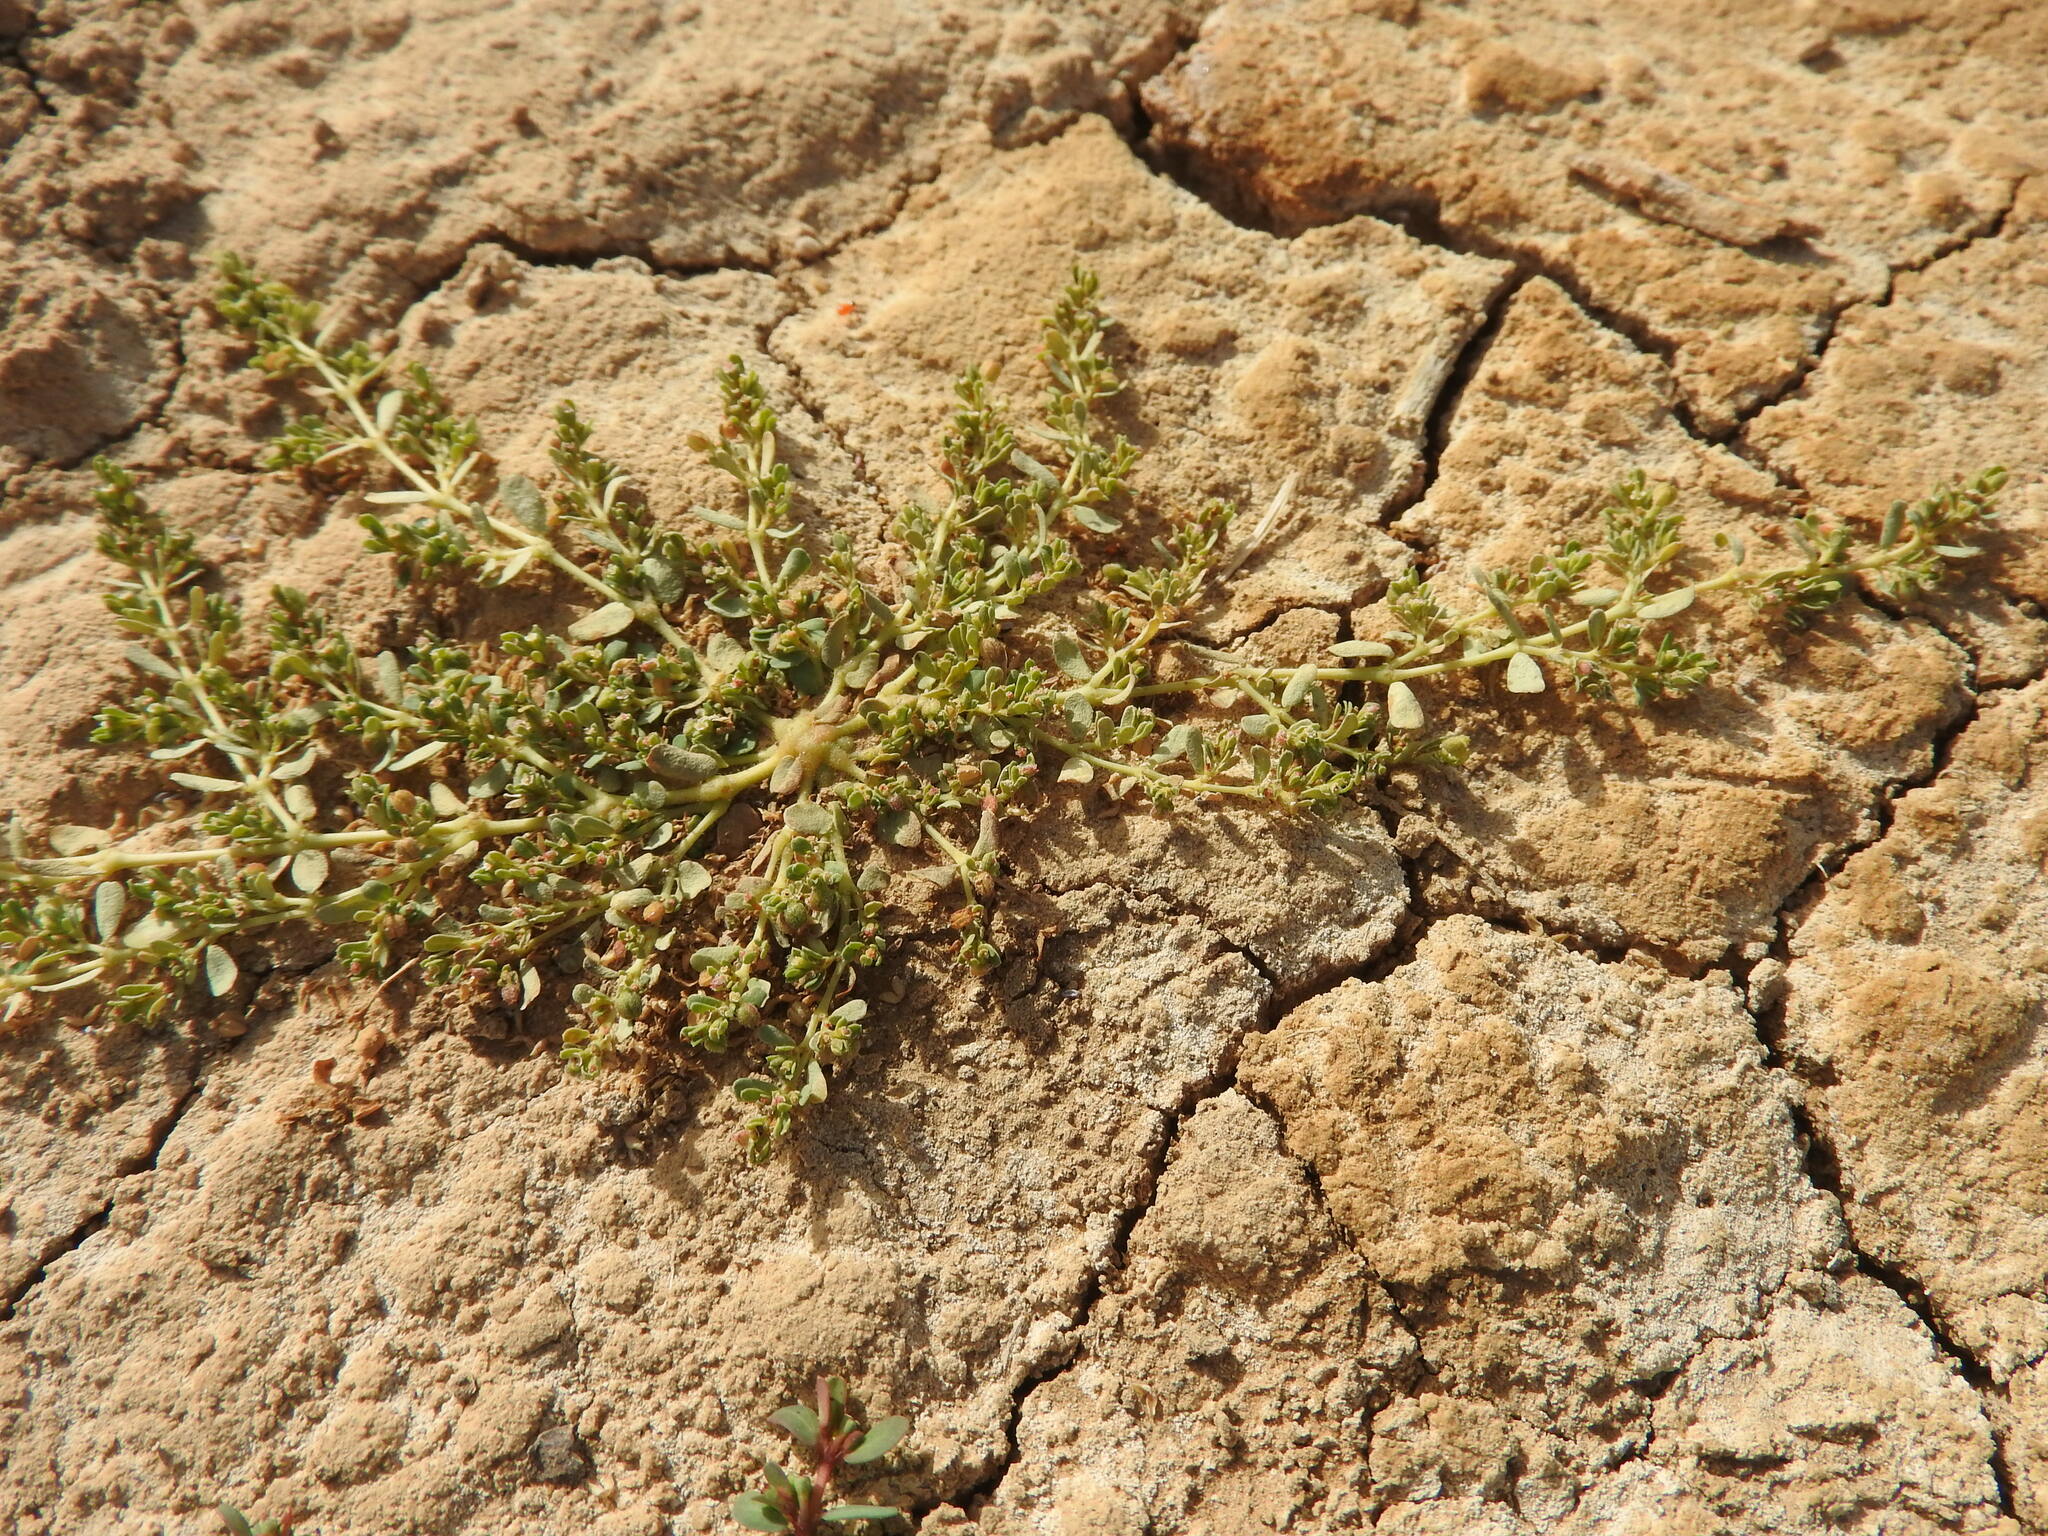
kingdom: Plantae
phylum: Tracheophyta
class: Magnoliopsida
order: Malpighiales
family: Euphorbiaceae
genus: Euphorbia
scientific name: Euphorbia granulata
